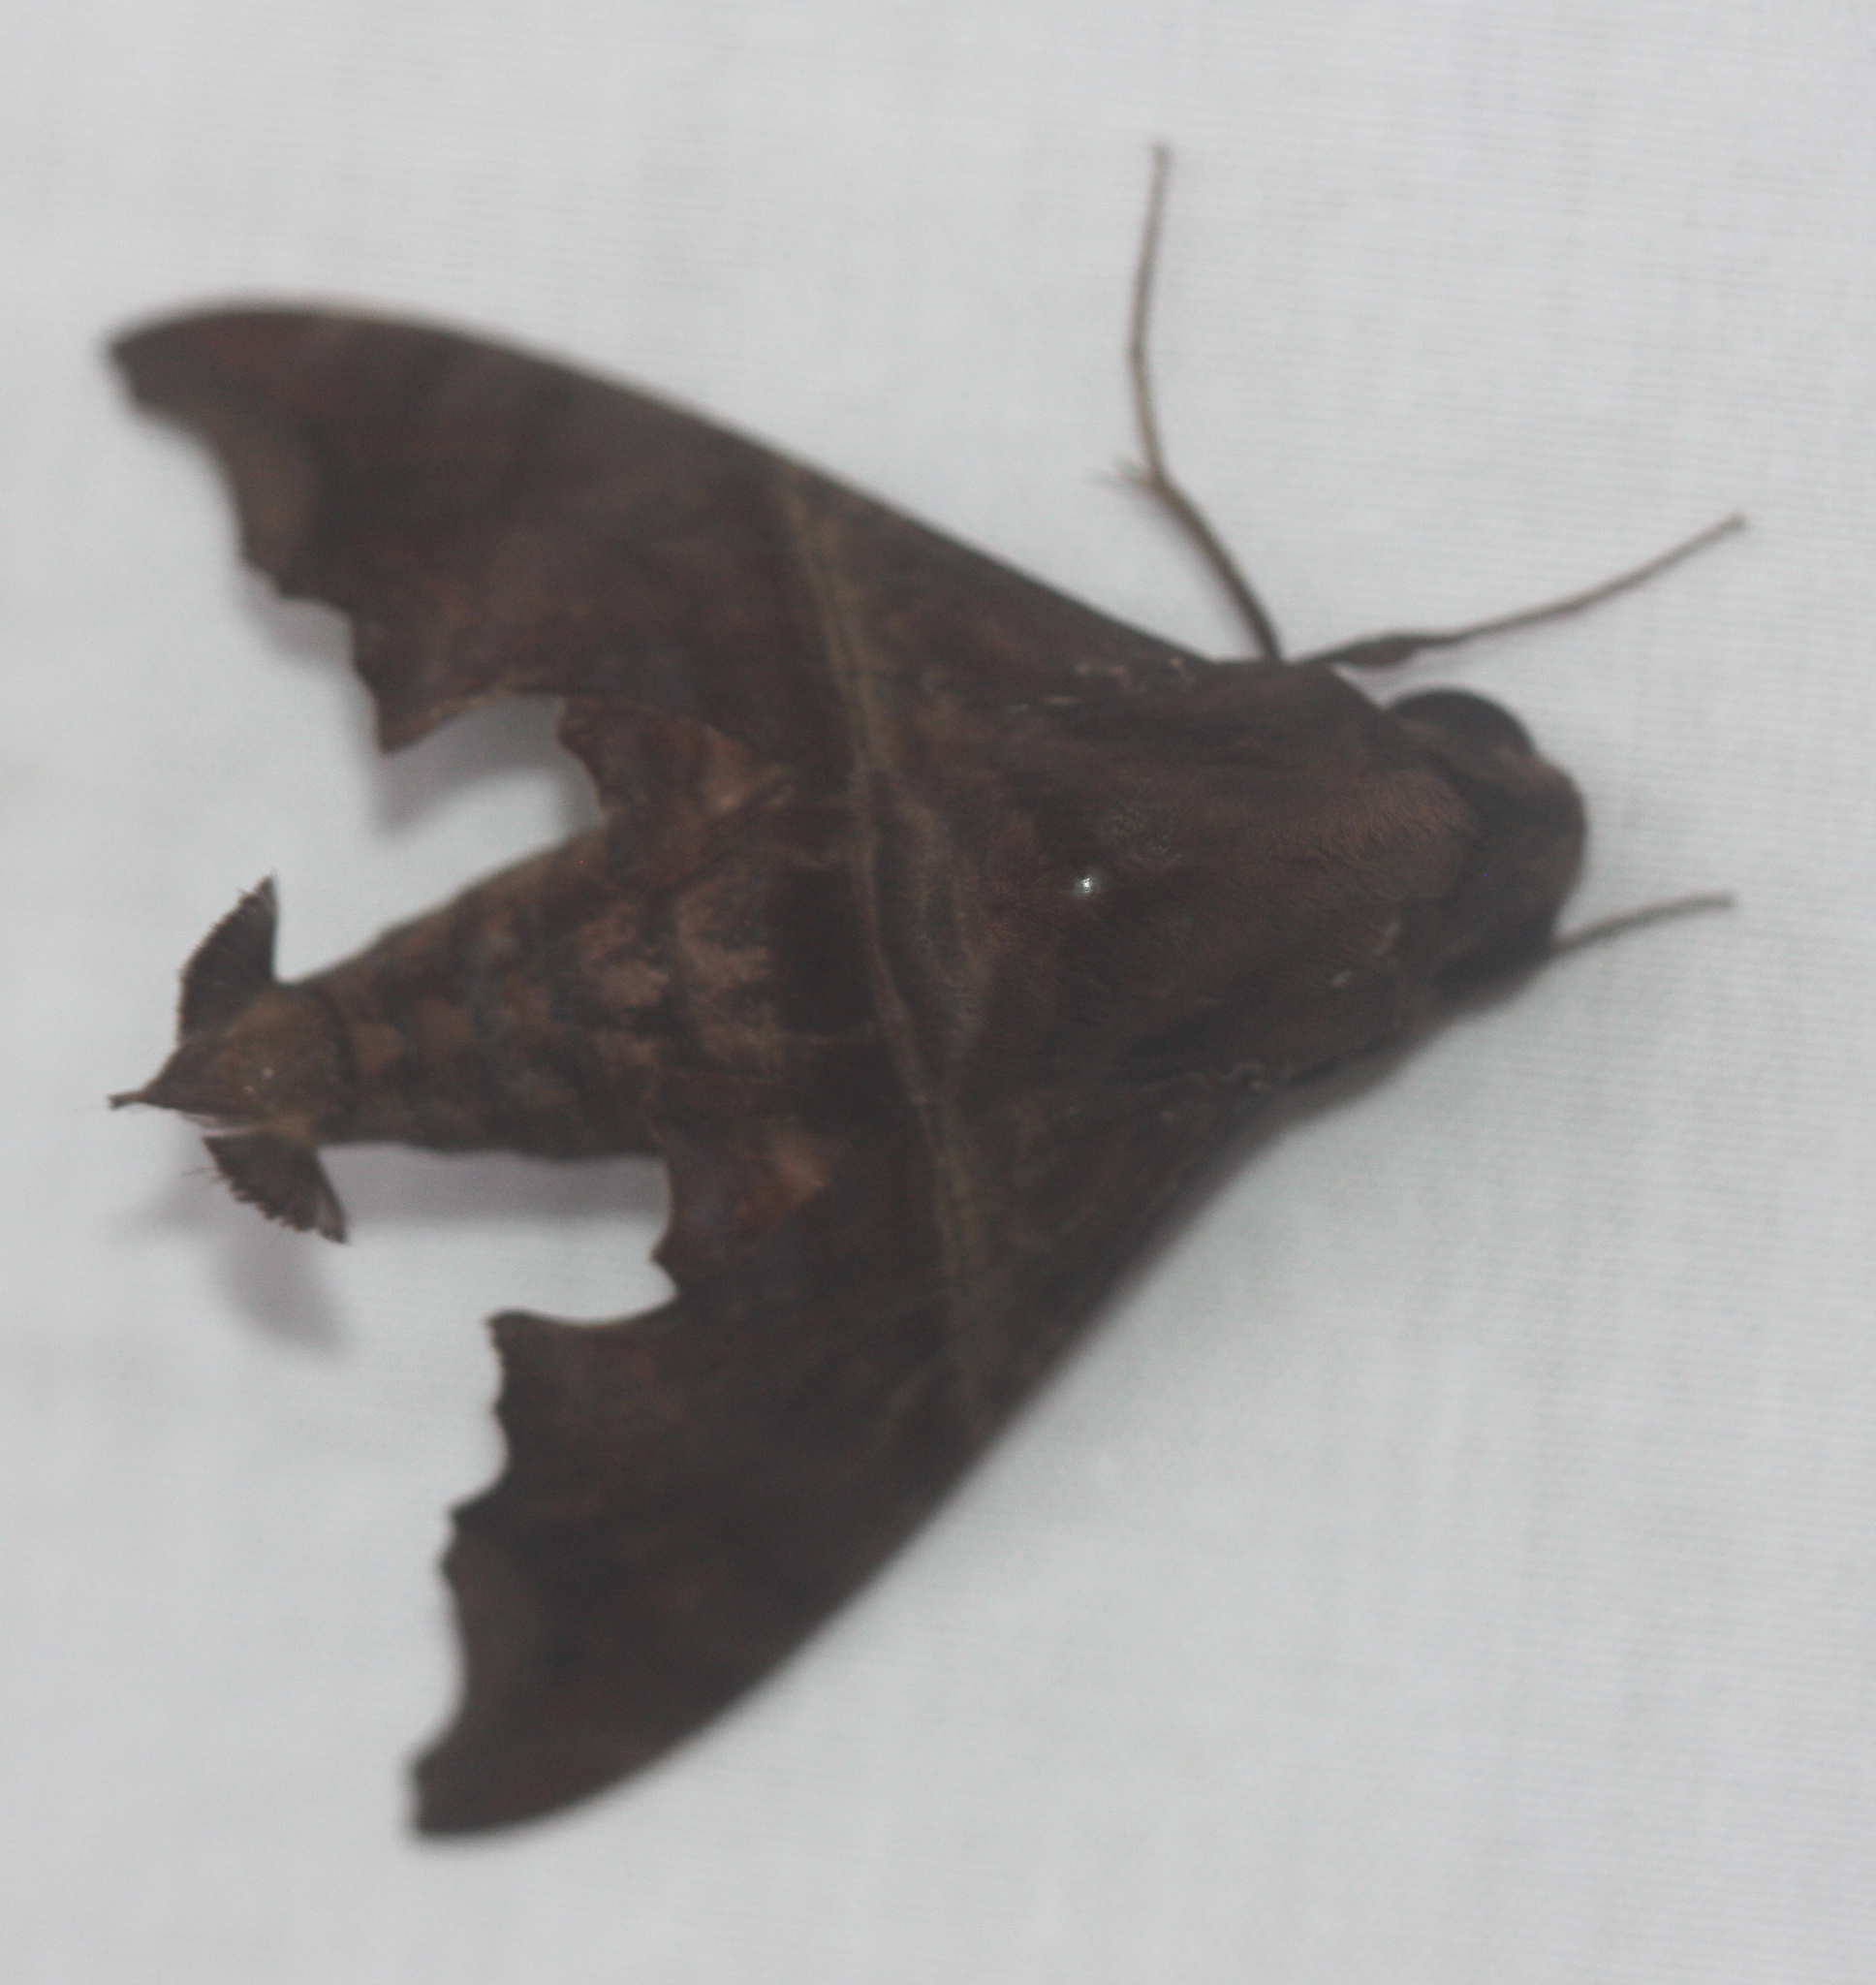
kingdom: Animalia
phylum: Arthropoda
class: Insecta
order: Lepidoptera
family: Sphingidae
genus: Enyo
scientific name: Enyo ocypete
